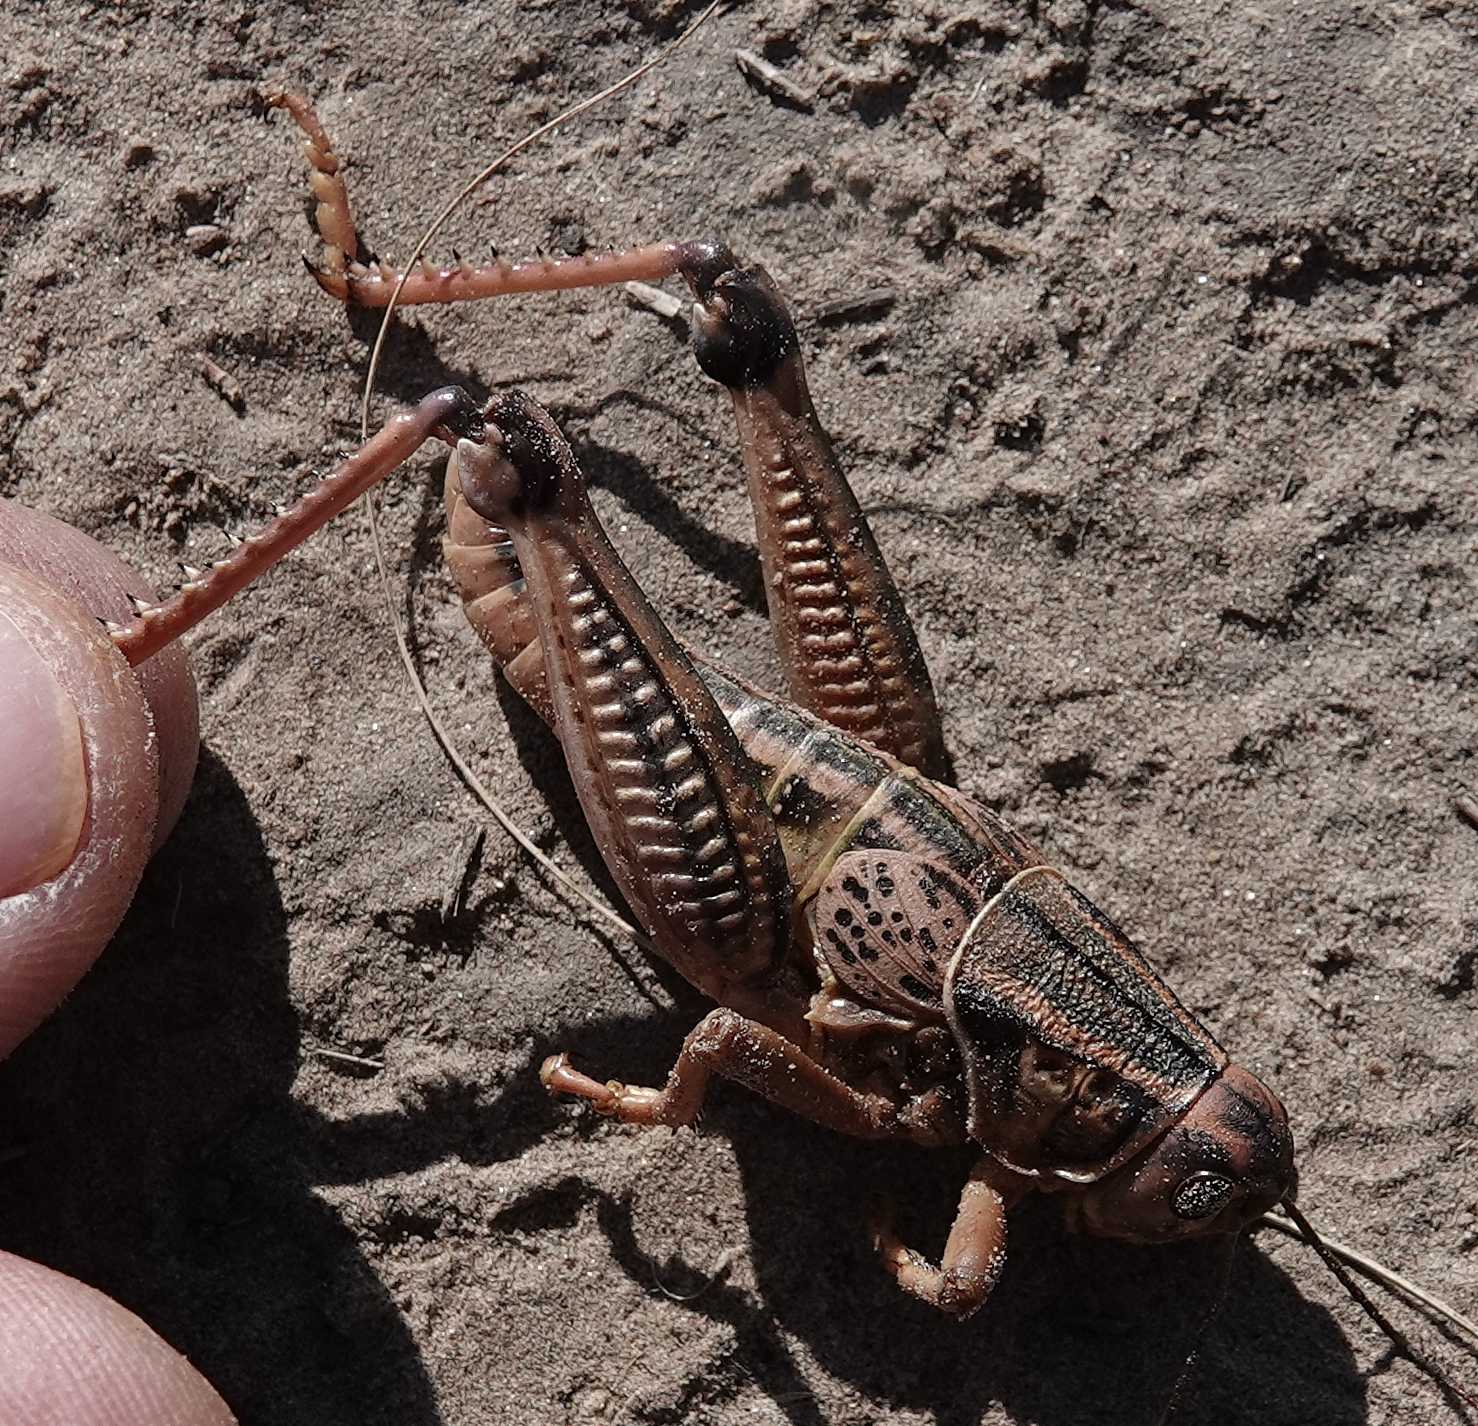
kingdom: Animalia
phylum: Arthropoda
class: Insecta
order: Orthoptera
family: Romaleidae
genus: Brachystola
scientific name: Brachystola magna
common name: Plains lubber grasshopper
